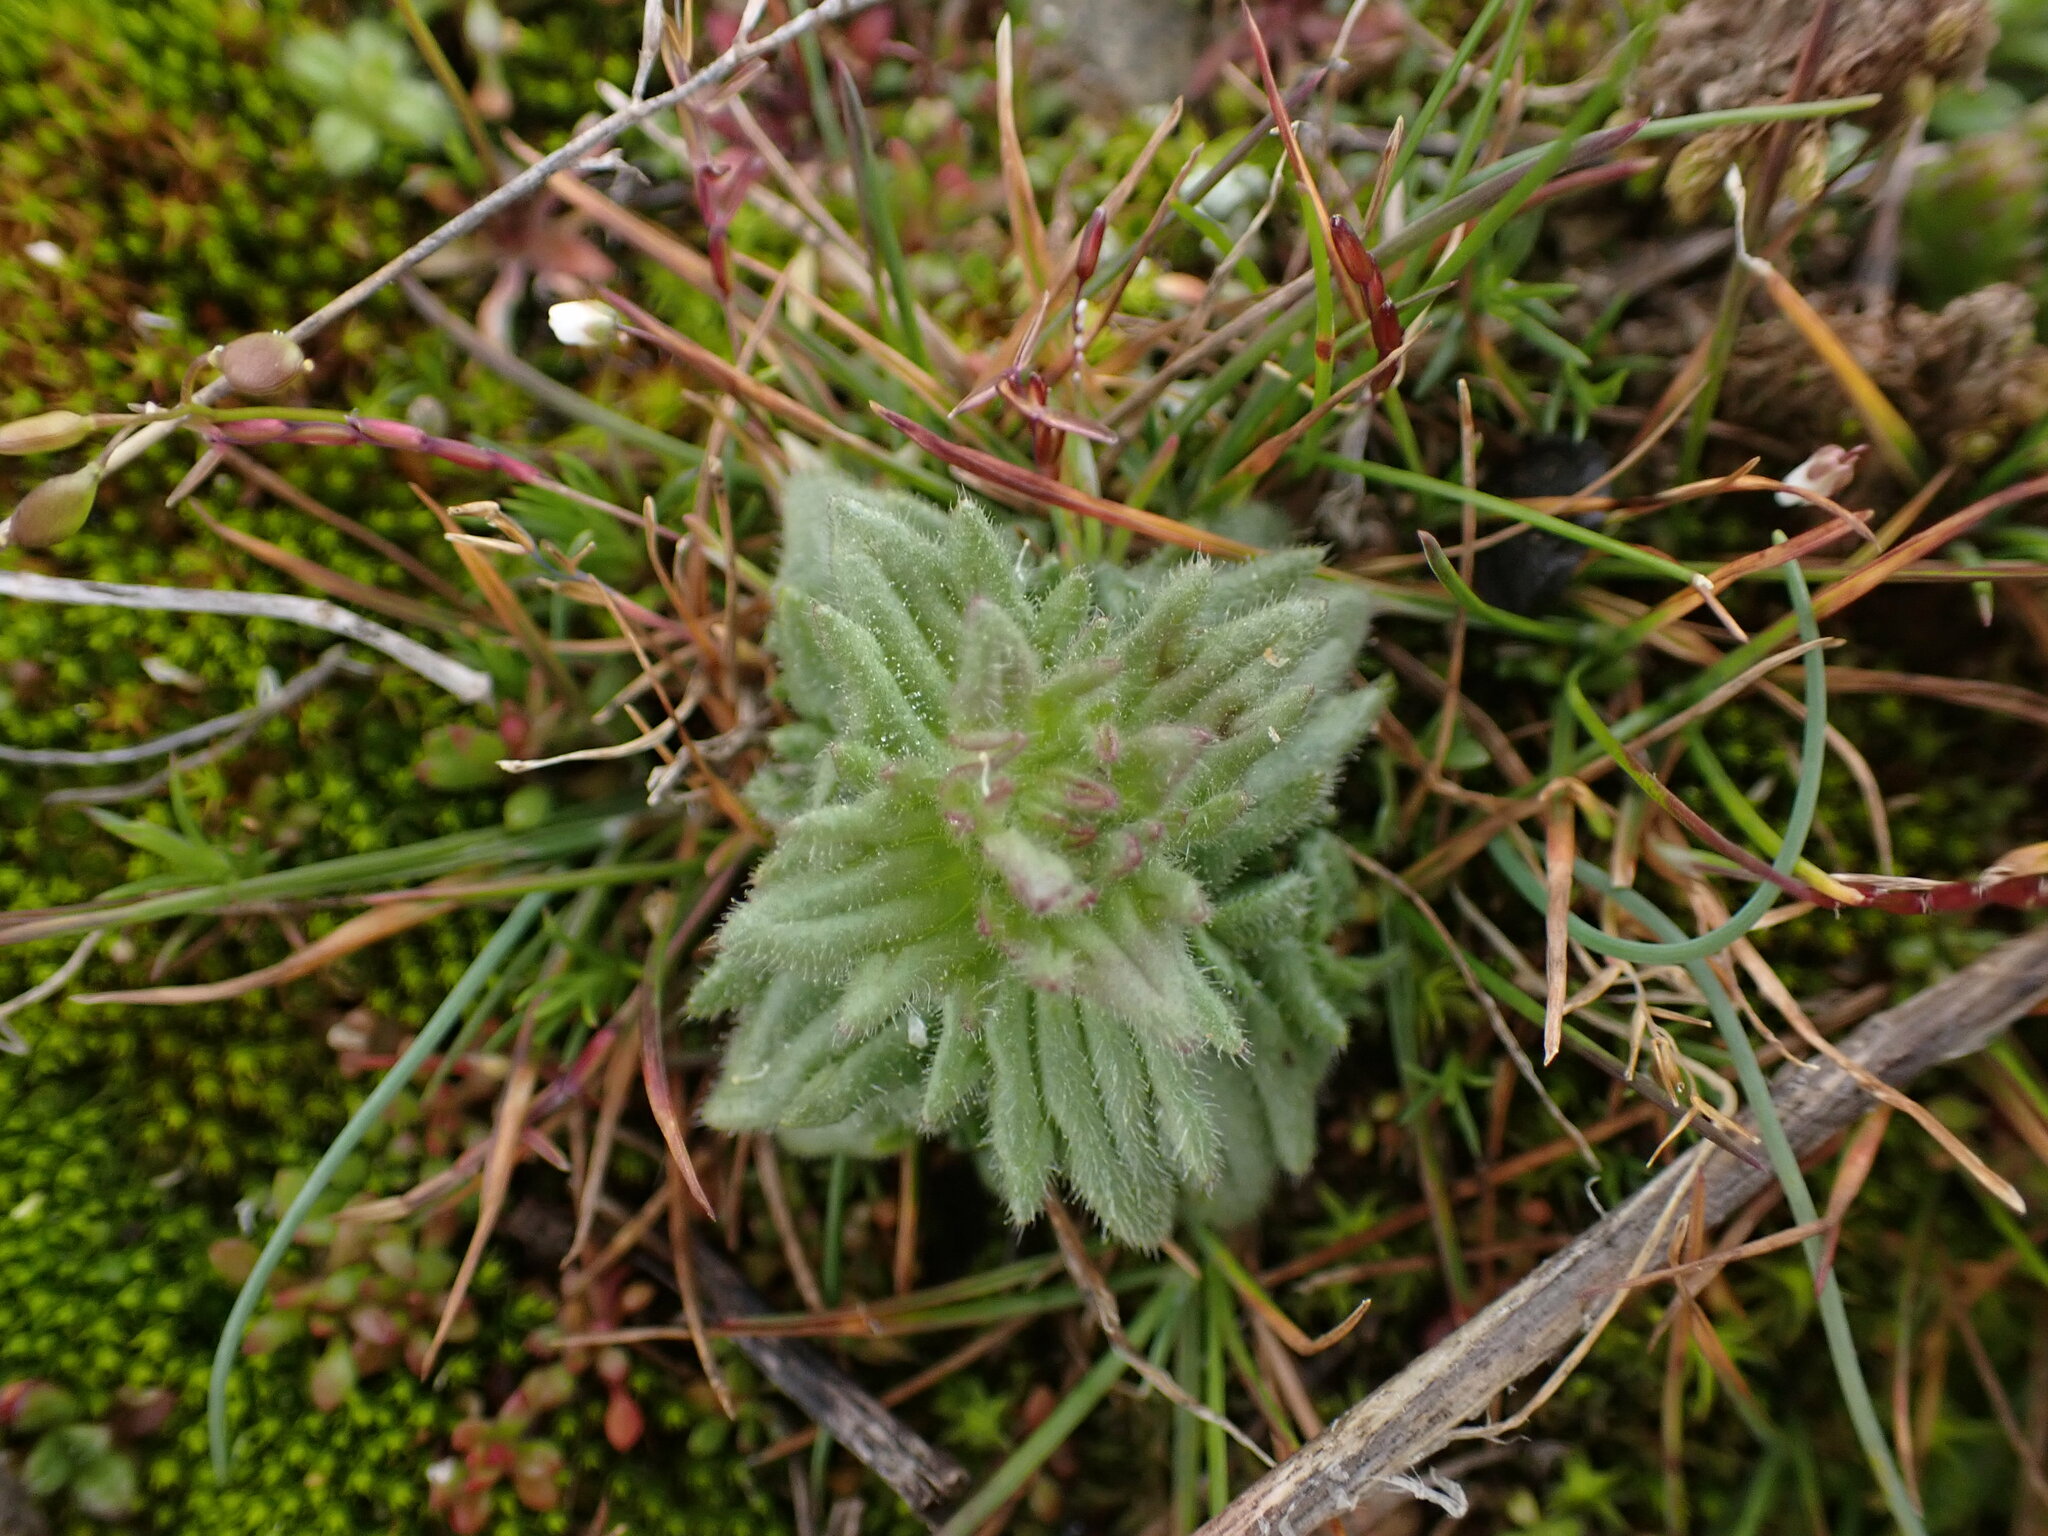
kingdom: Plantae
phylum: Tracheophyta
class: Magnoliopsida
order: Lamiales
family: Orobanchaceae
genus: Parentucellia
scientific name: Parentucellia latifolia
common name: Broadleaf glandweed
